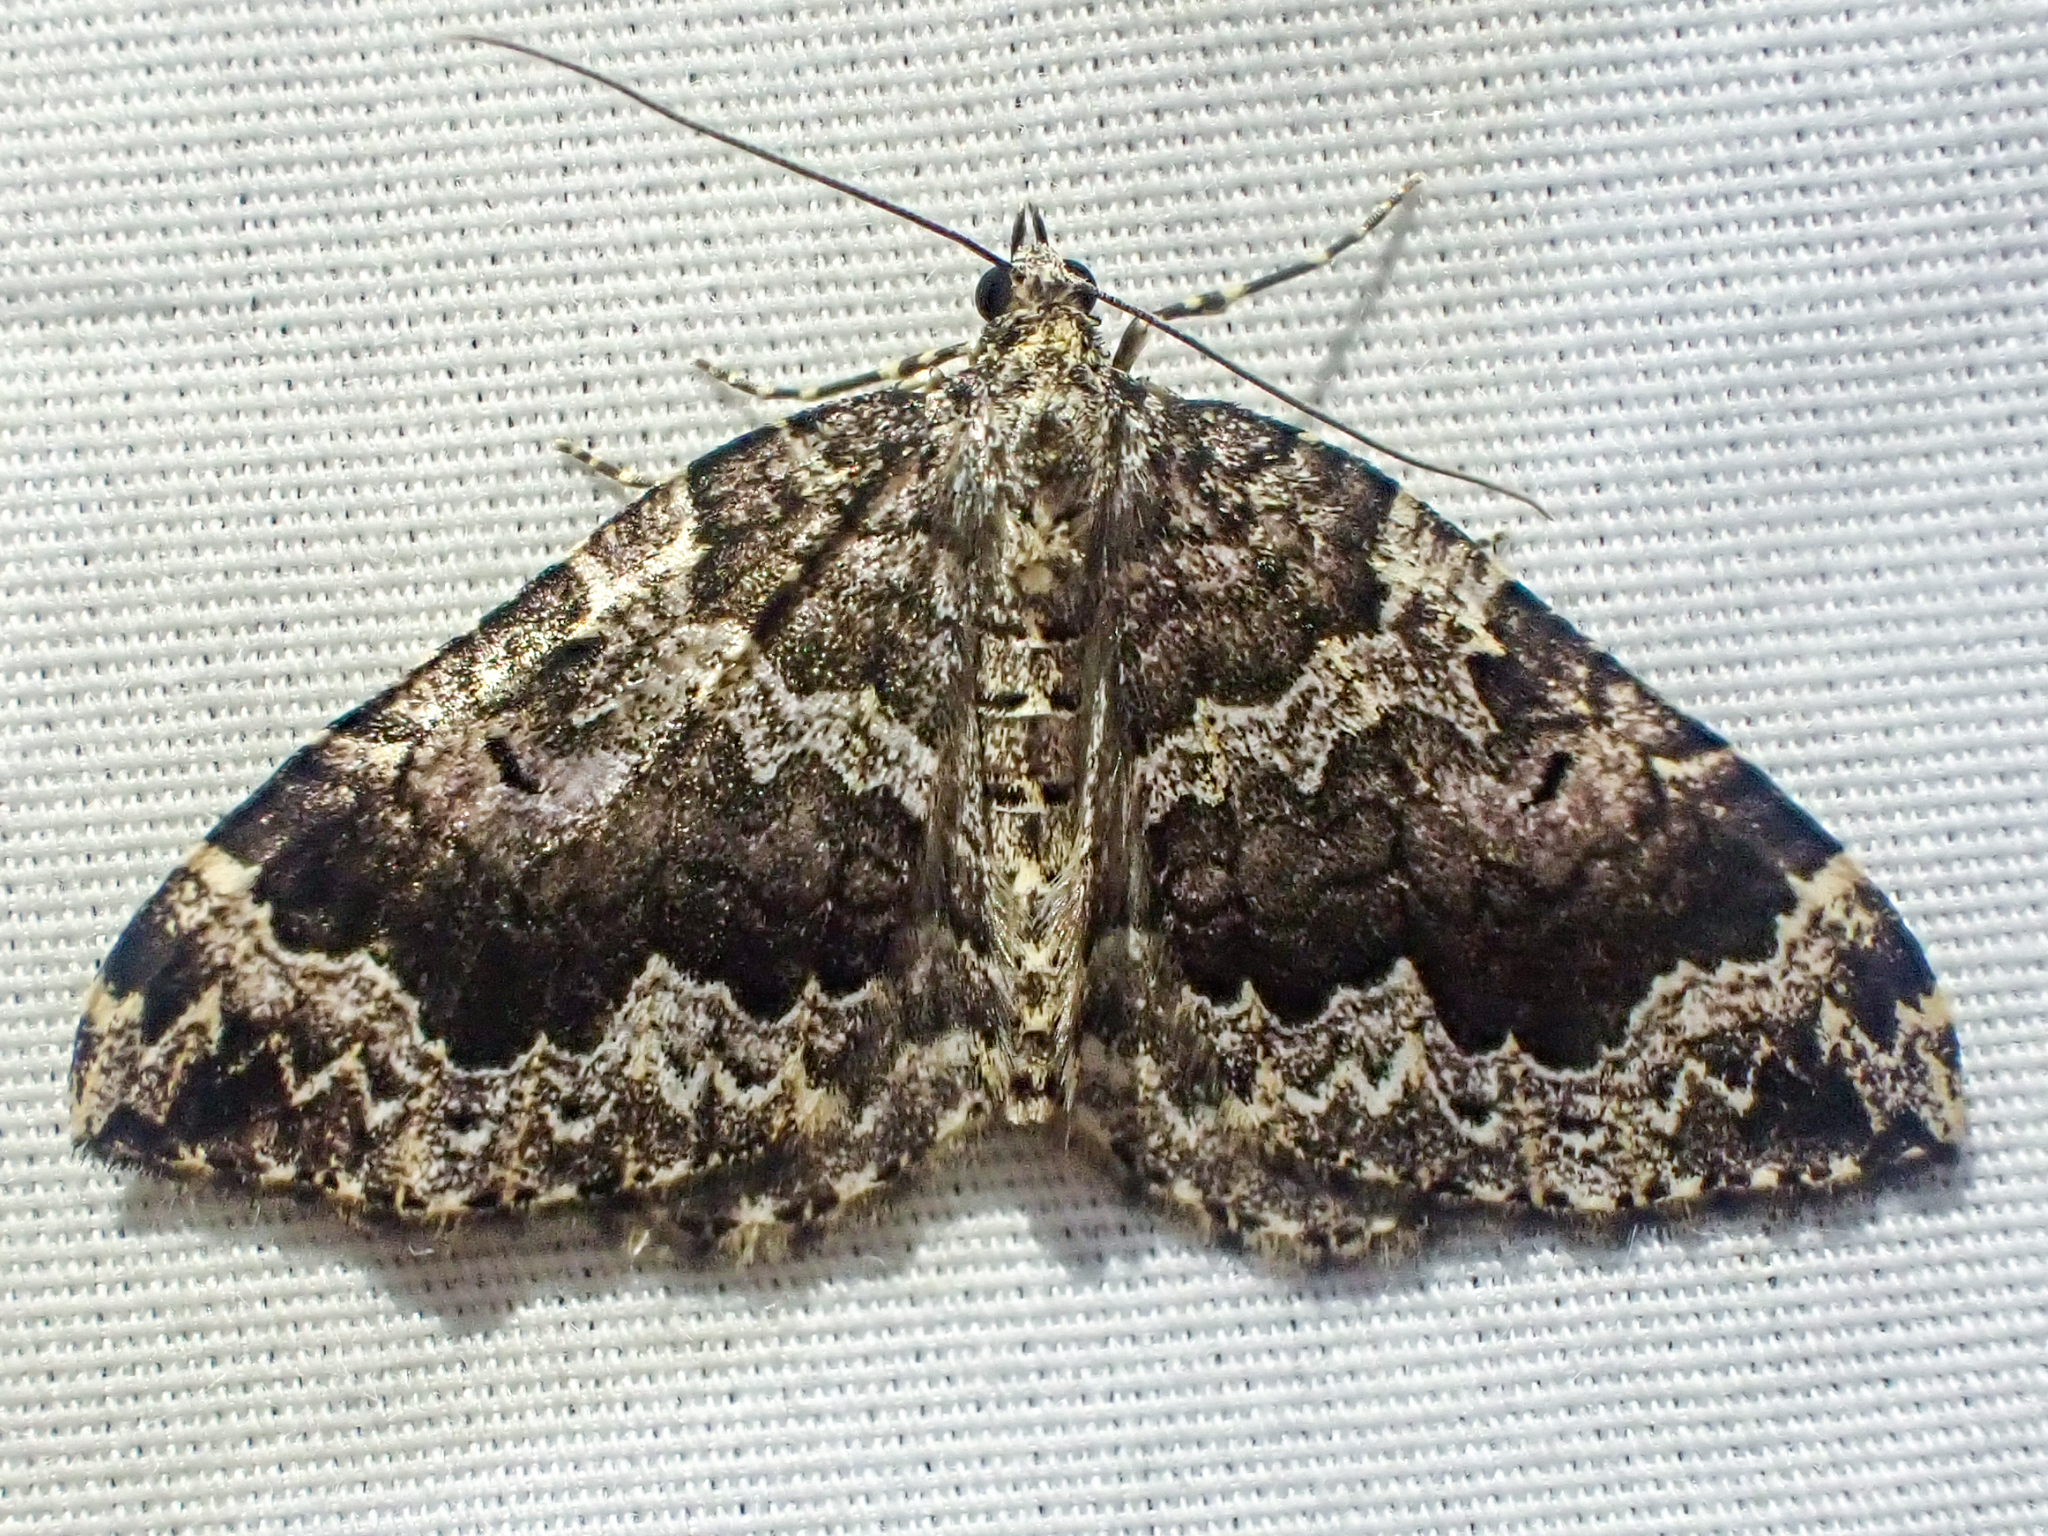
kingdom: Animalia
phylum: Arthropoda
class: Insecta
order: Lepidoptera
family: Geometridae
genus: Eustroma
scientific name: Eustroma semiatrata
